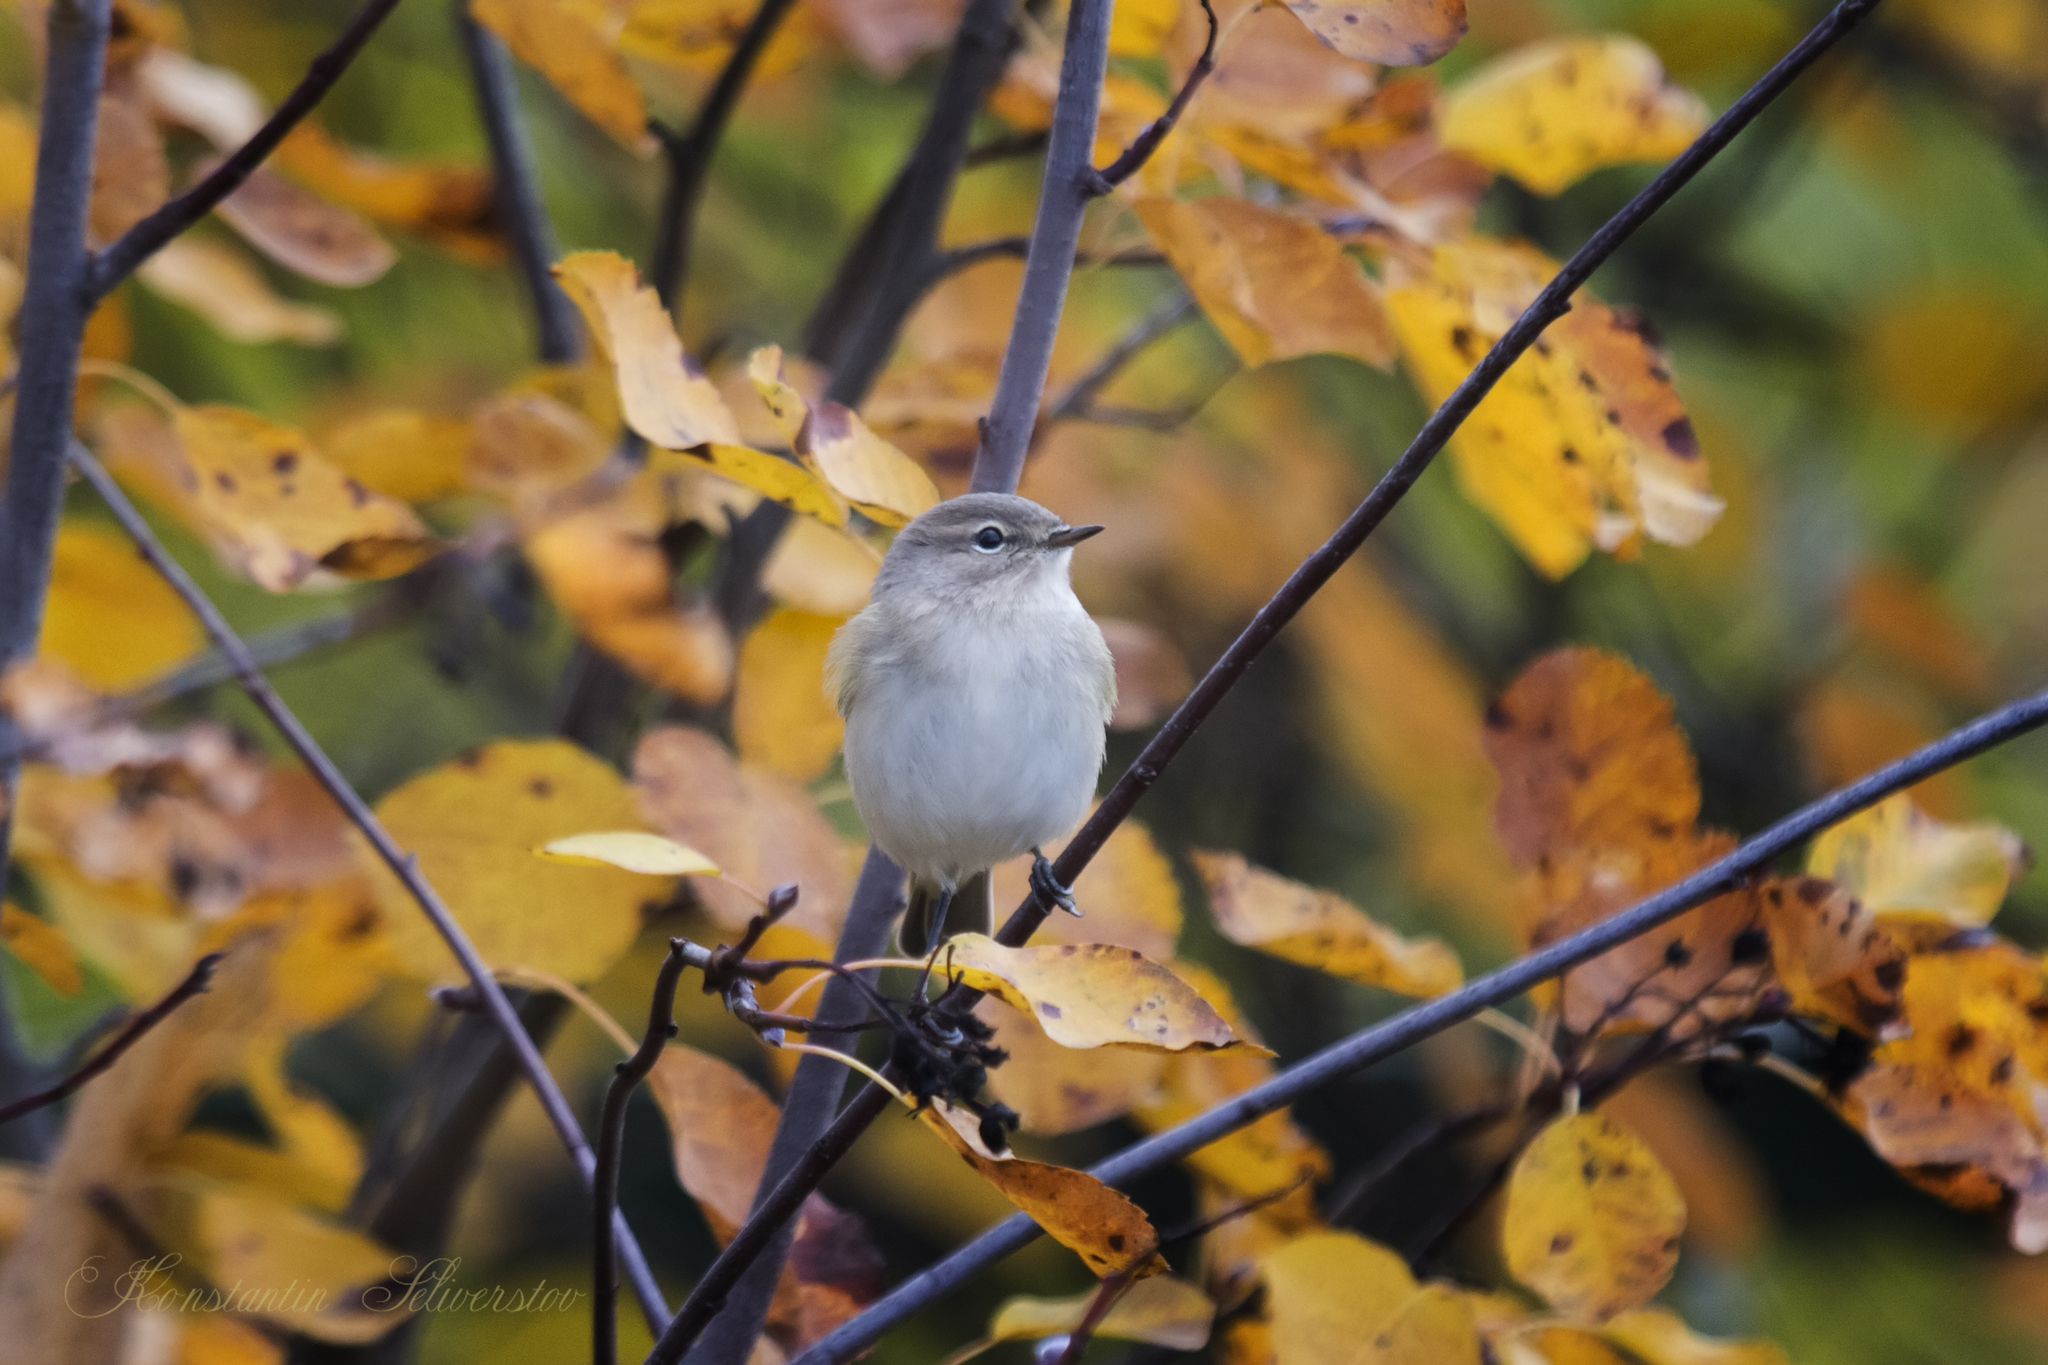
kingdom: Animalia
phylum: Chordata
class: Aves
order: Passeriformes
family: Phylloscopidae
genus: Phylloscopus
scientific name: Phylloscopus collybita
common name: Common chiffchaff
